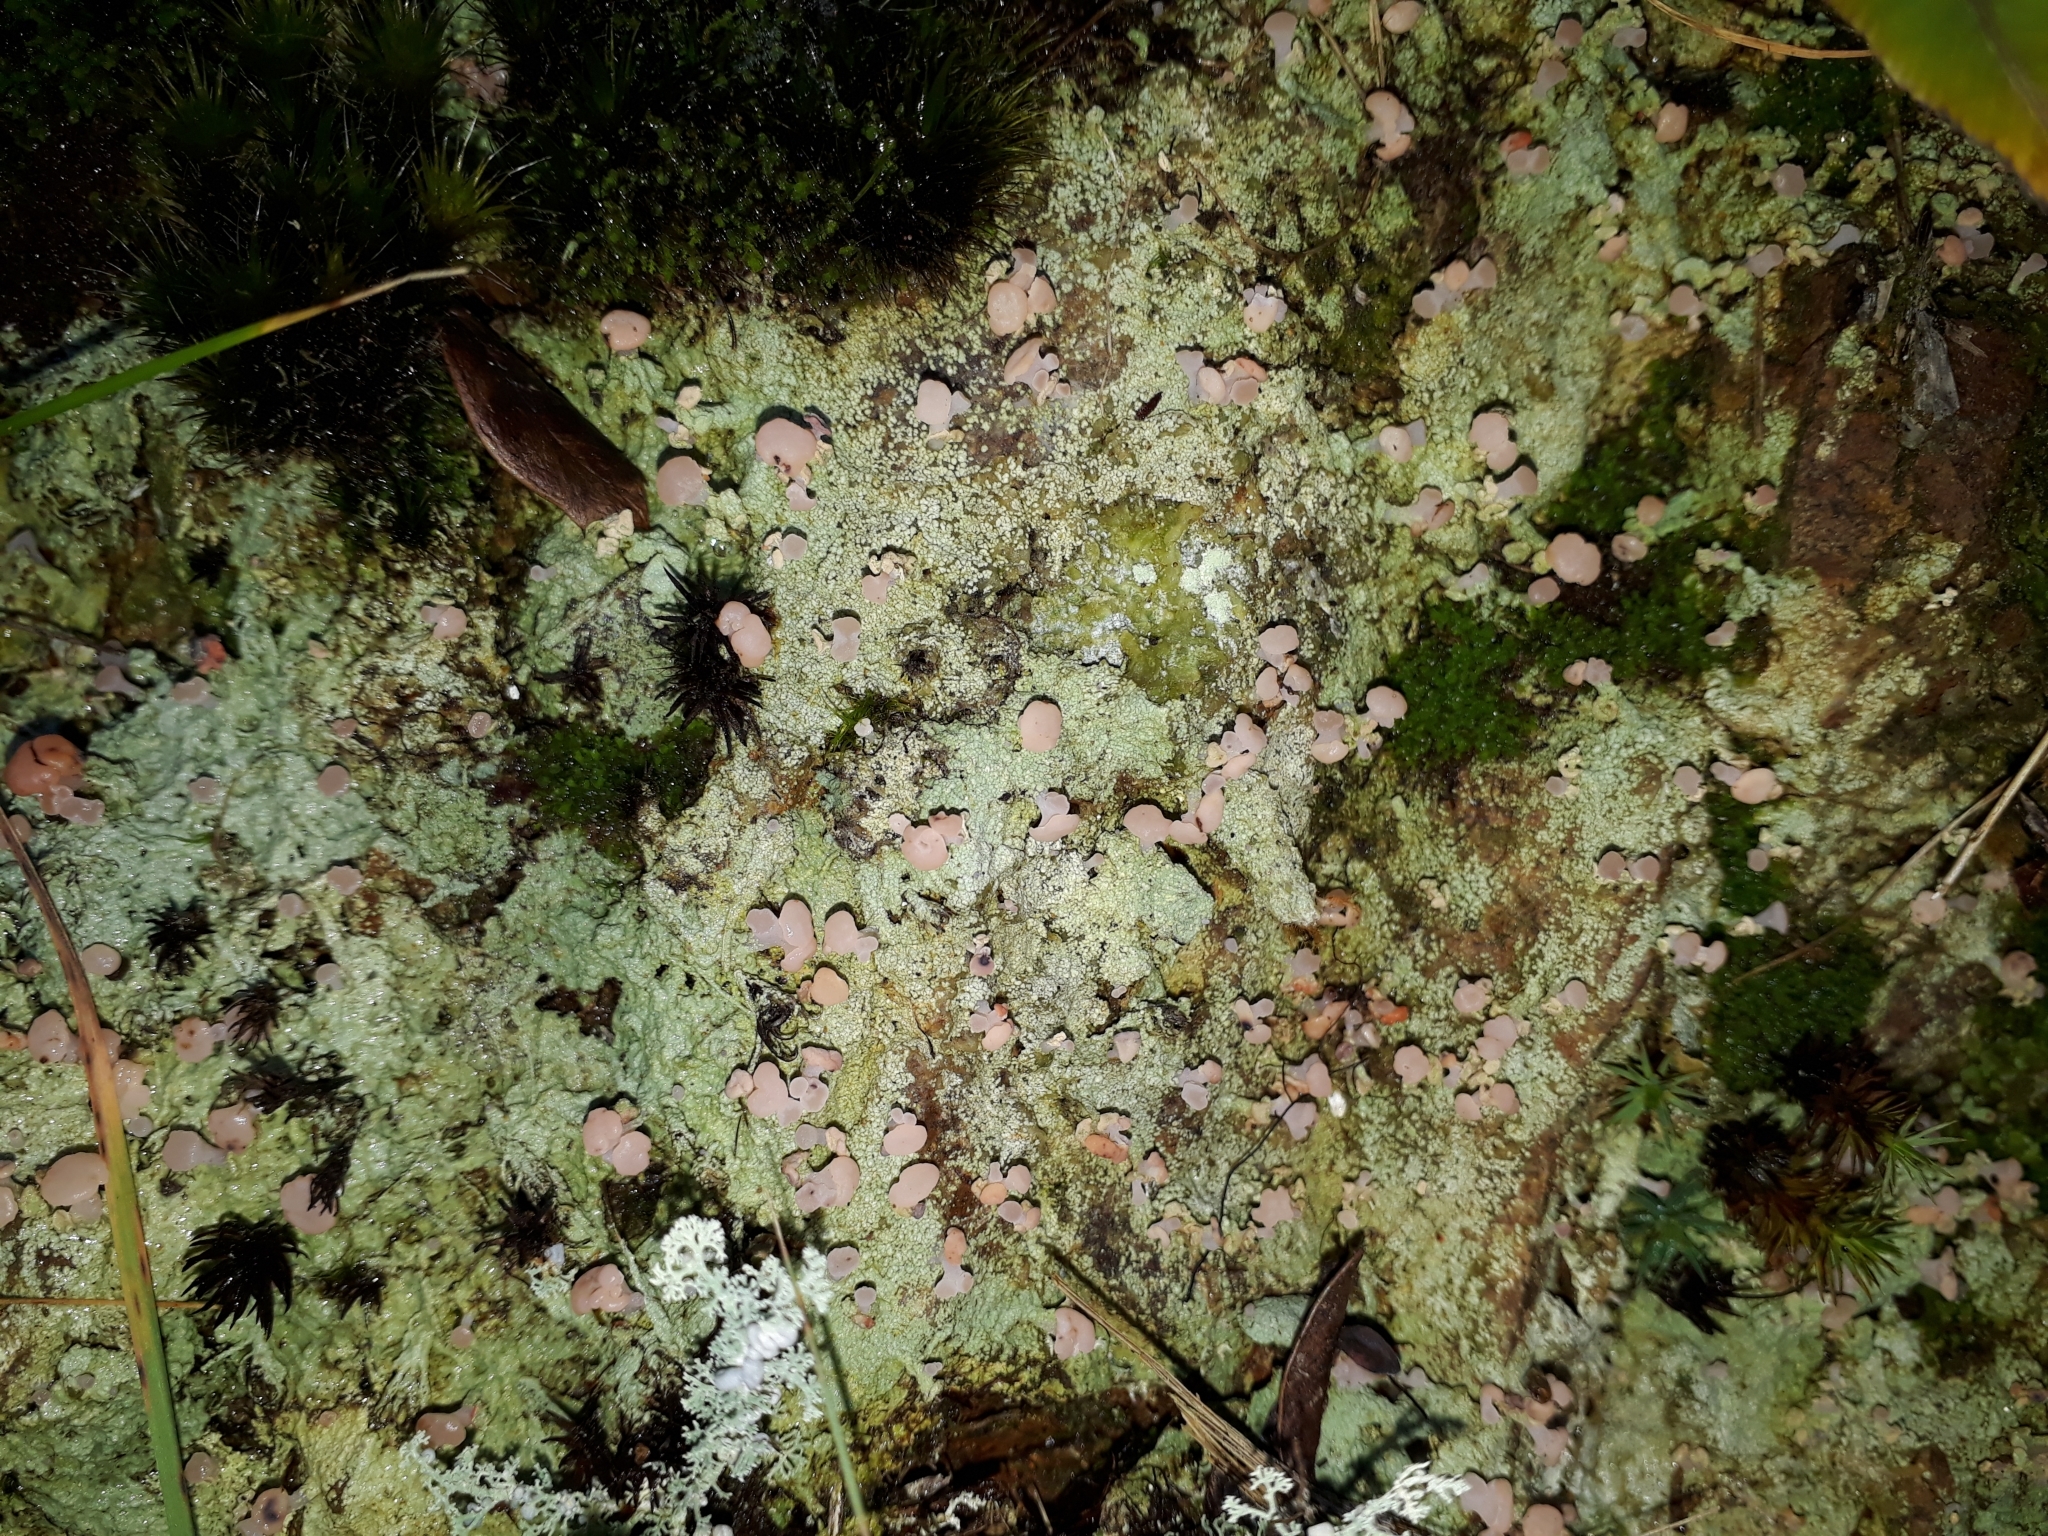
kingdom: Fungi
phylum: Ascomycota
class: Lecanoromycetes
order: Baeomycetales
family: Baeomycetaceae
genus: Baeomyces
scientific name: Baeomyces heteromorphus
